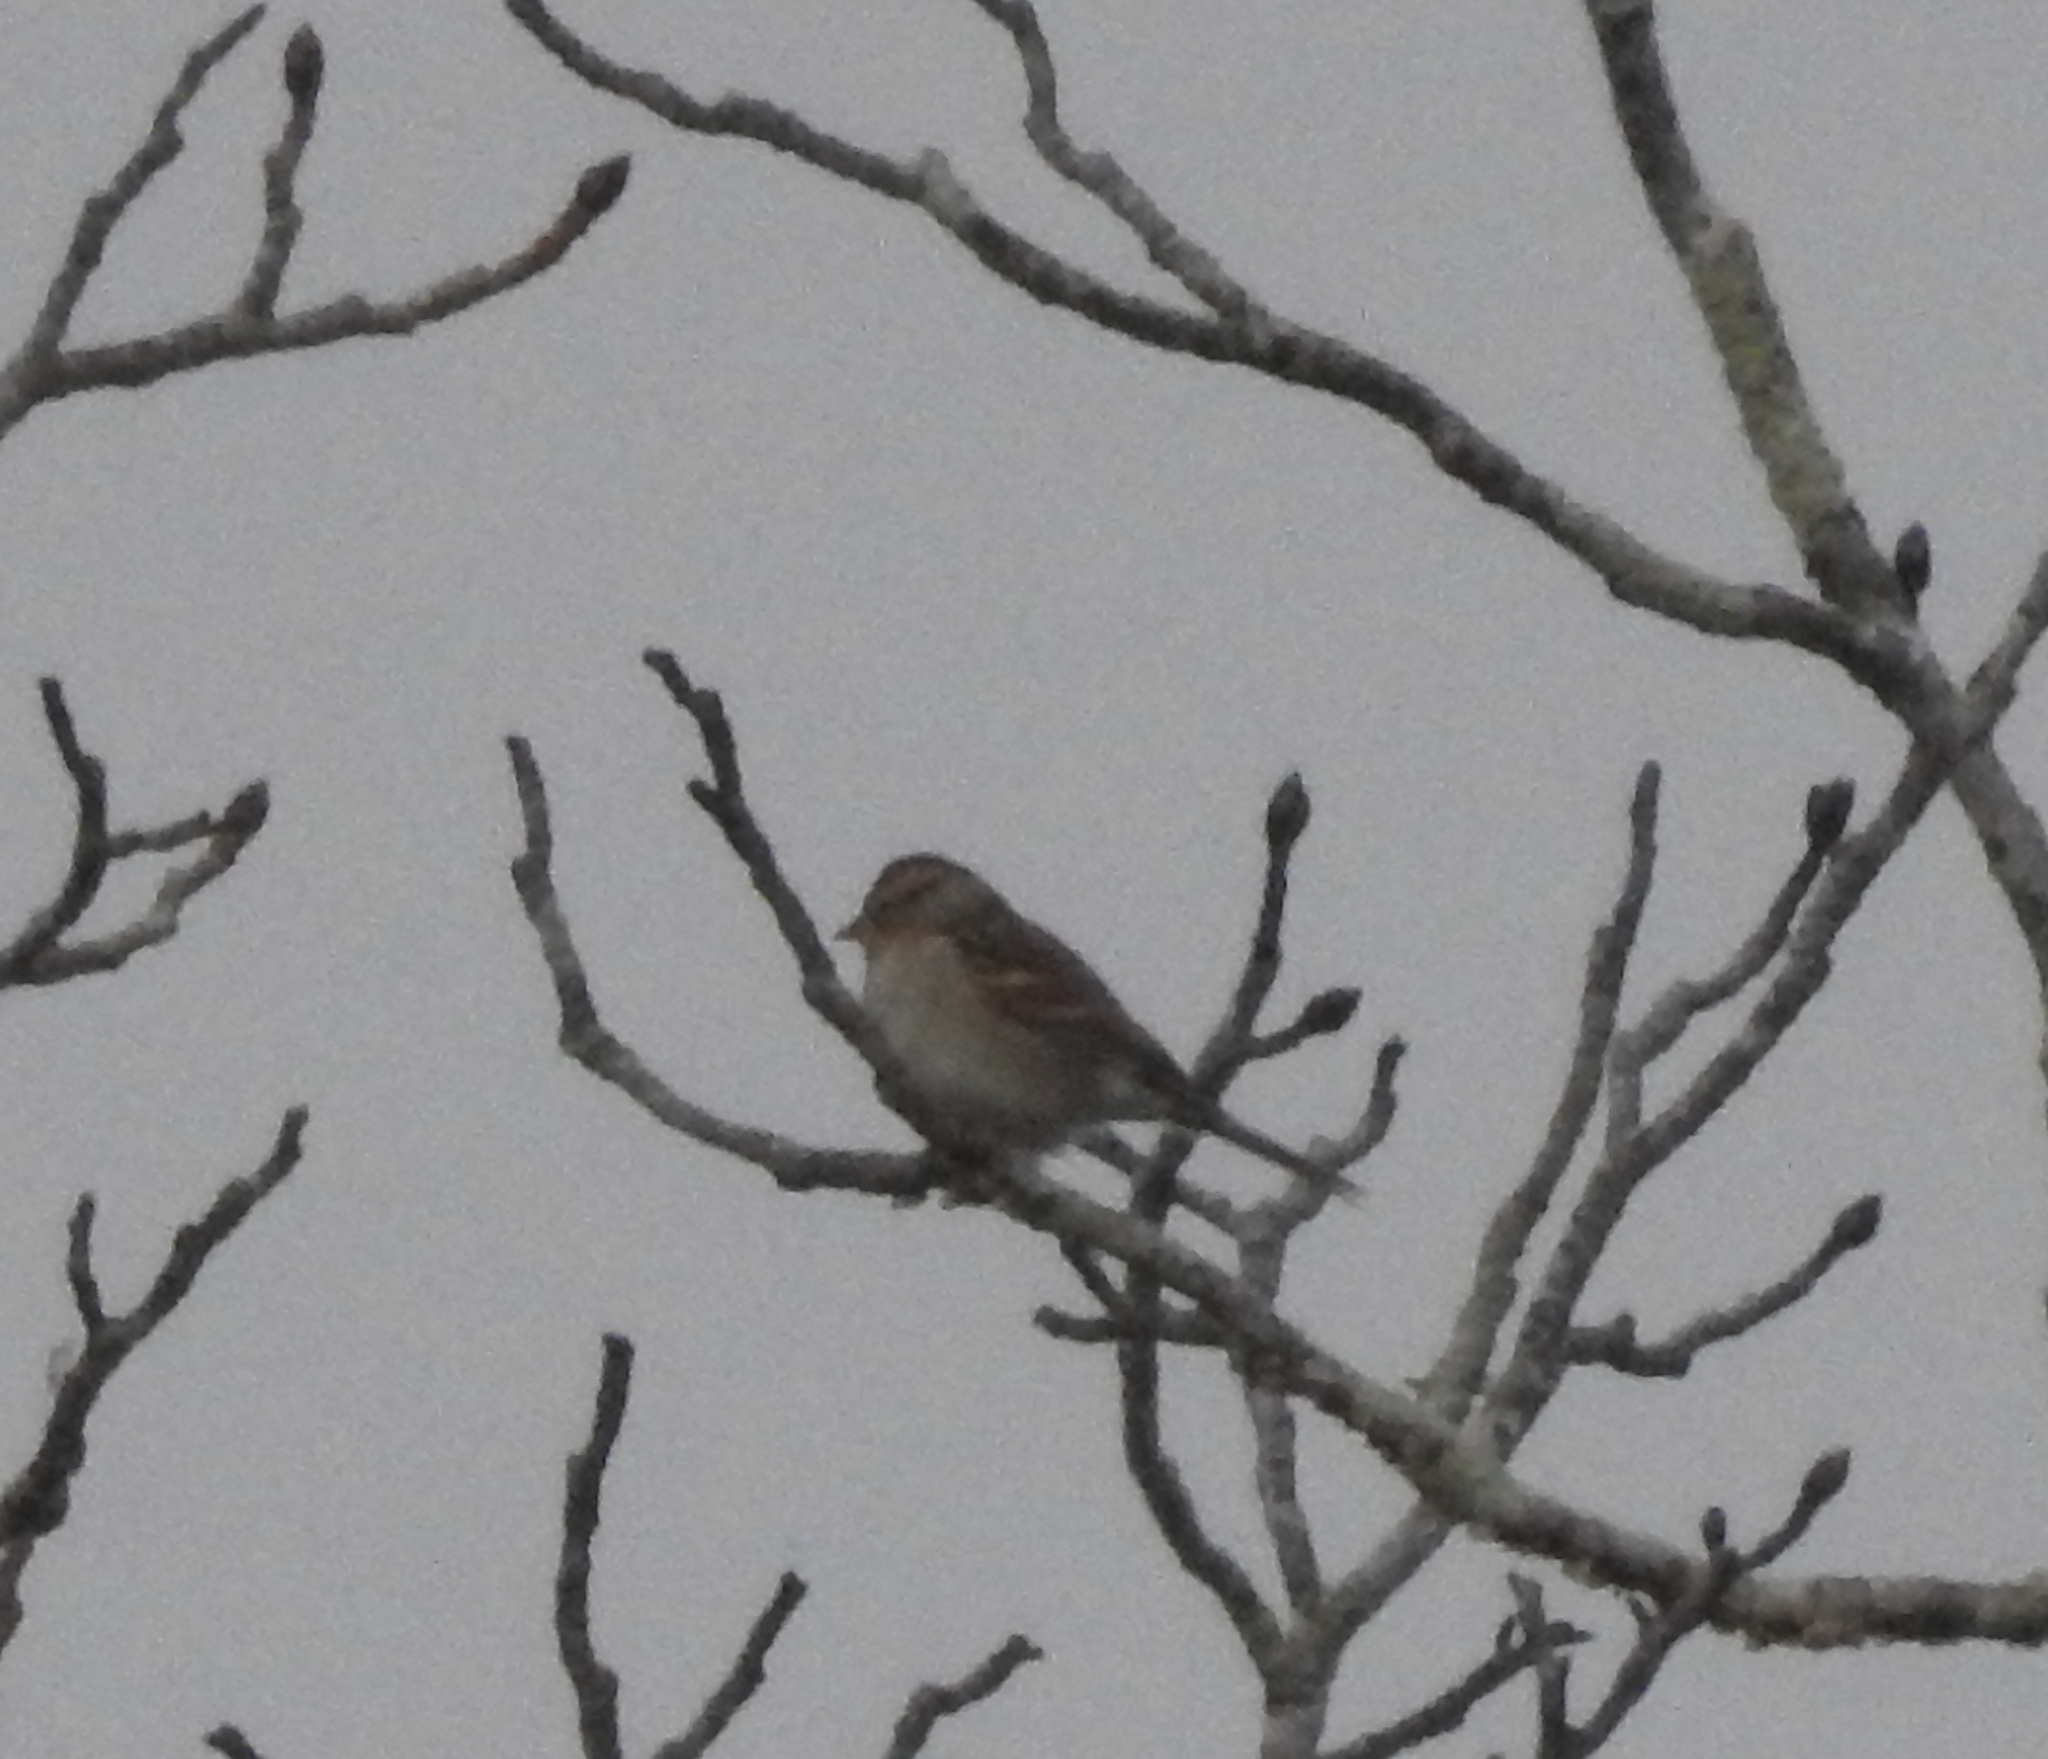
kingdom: Animalia
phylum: Chordata
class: Aves
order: Passeriformes
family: Passerellidae
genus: Spizella
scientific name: Spizella passerina
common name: Chipping sparrow
